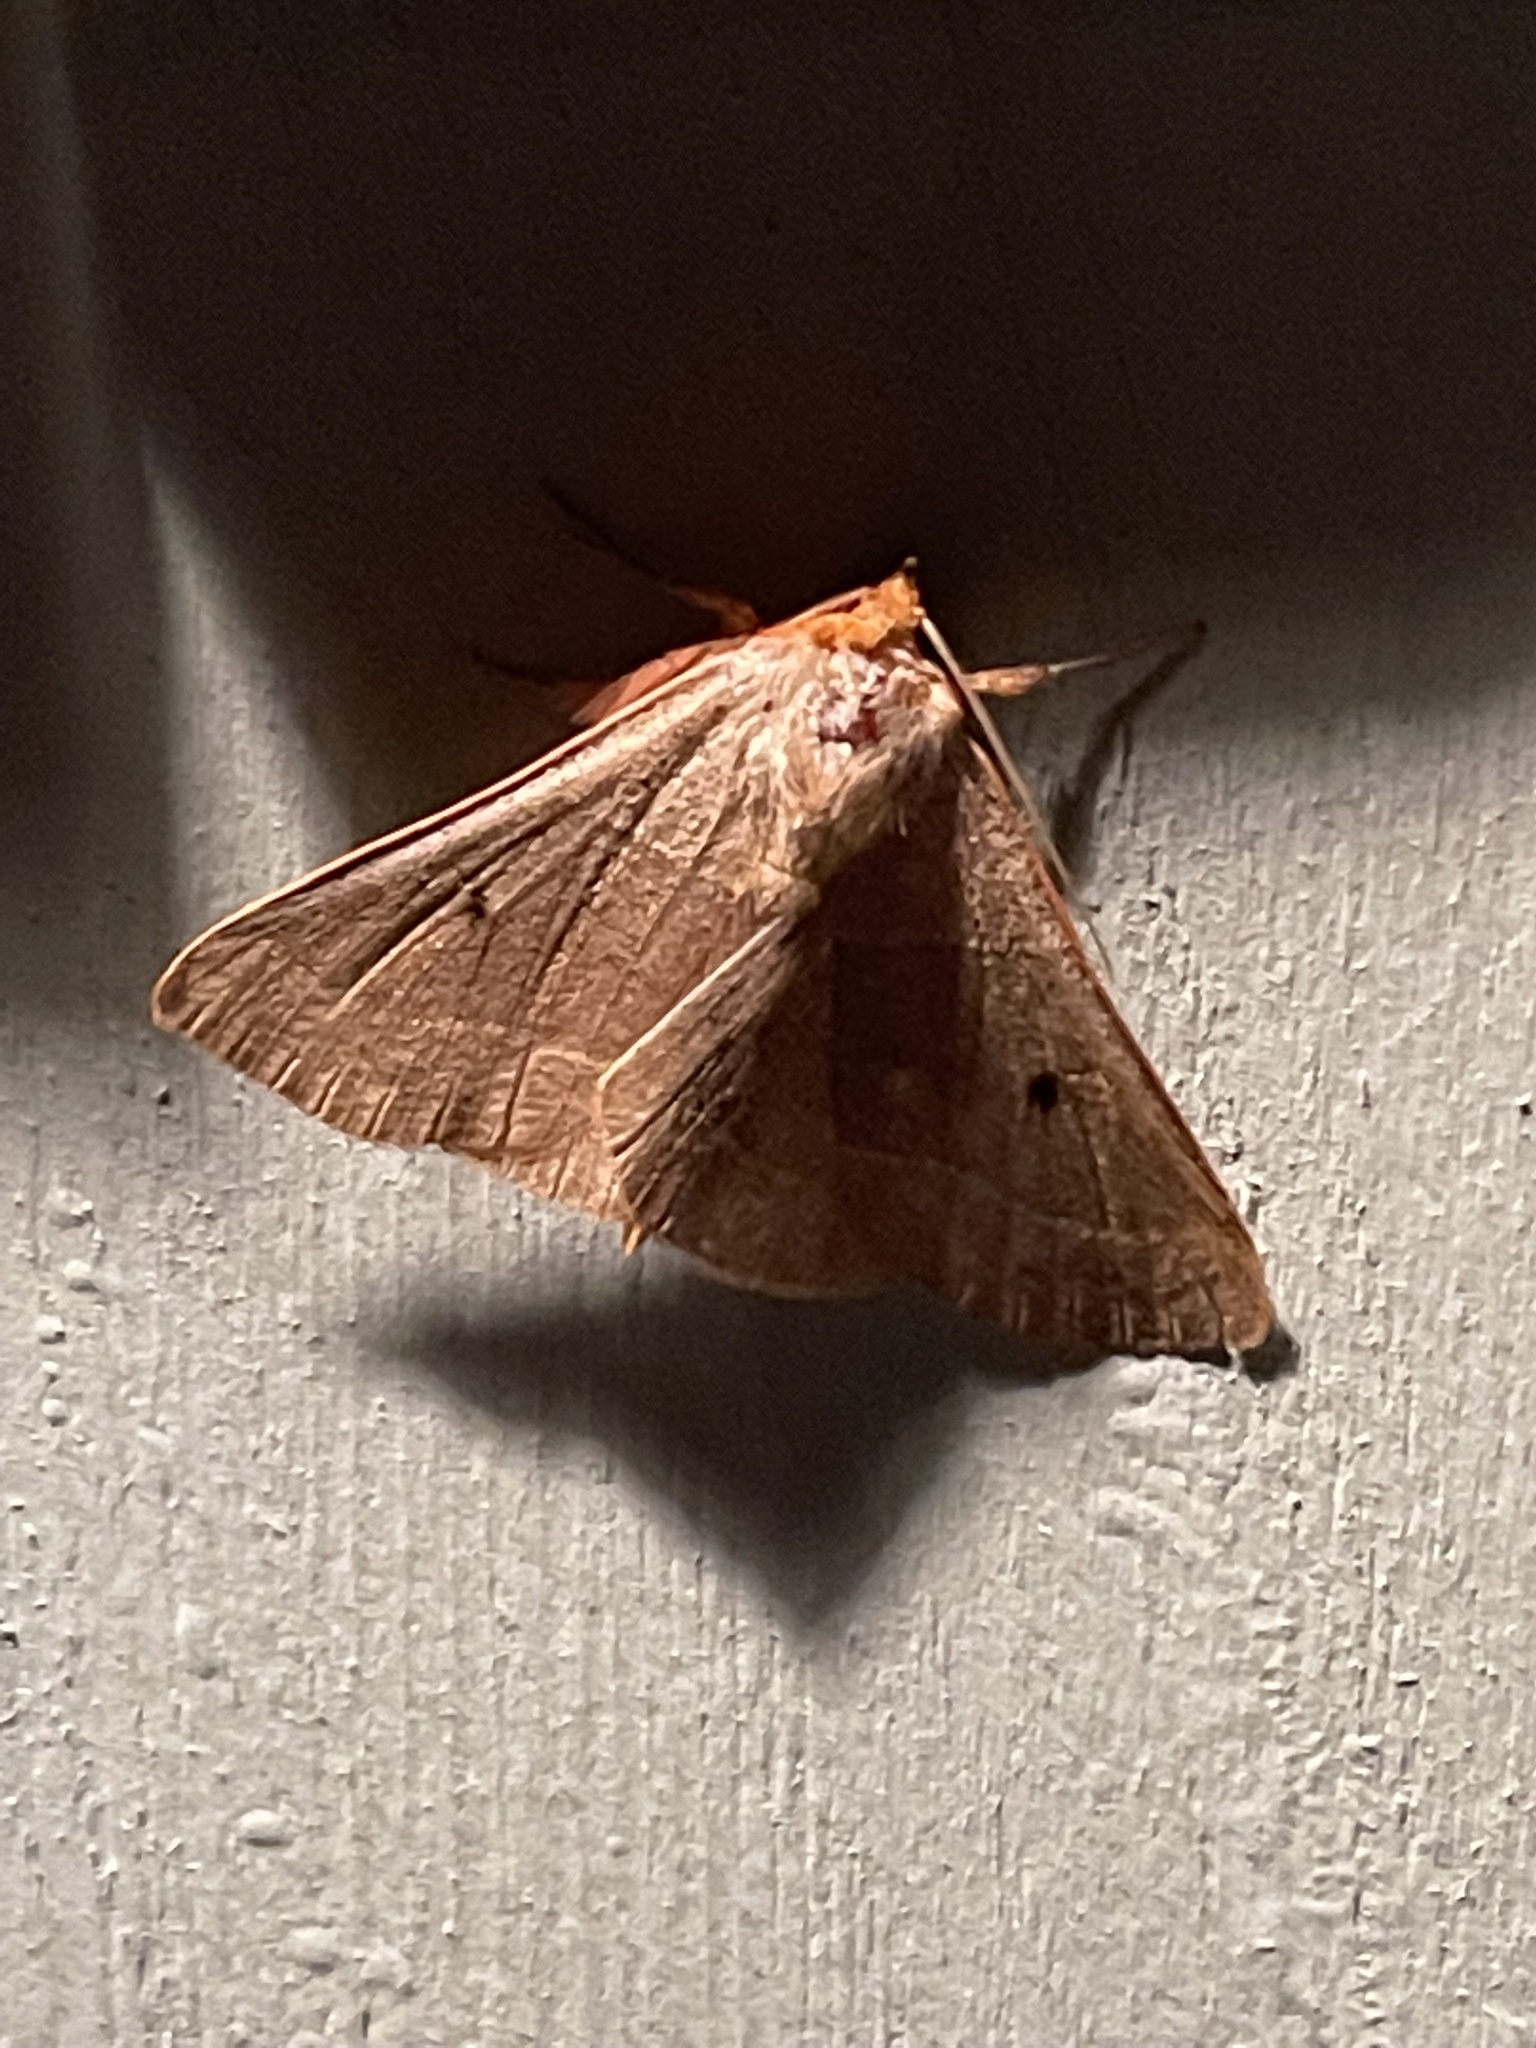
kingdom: Animalia
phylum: Arthropoda
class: Insecta
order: Lepidoptera
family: Erebidae
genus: Panopoda
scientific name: Panopoda rufimargo
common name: Red-lined panopoda moth
